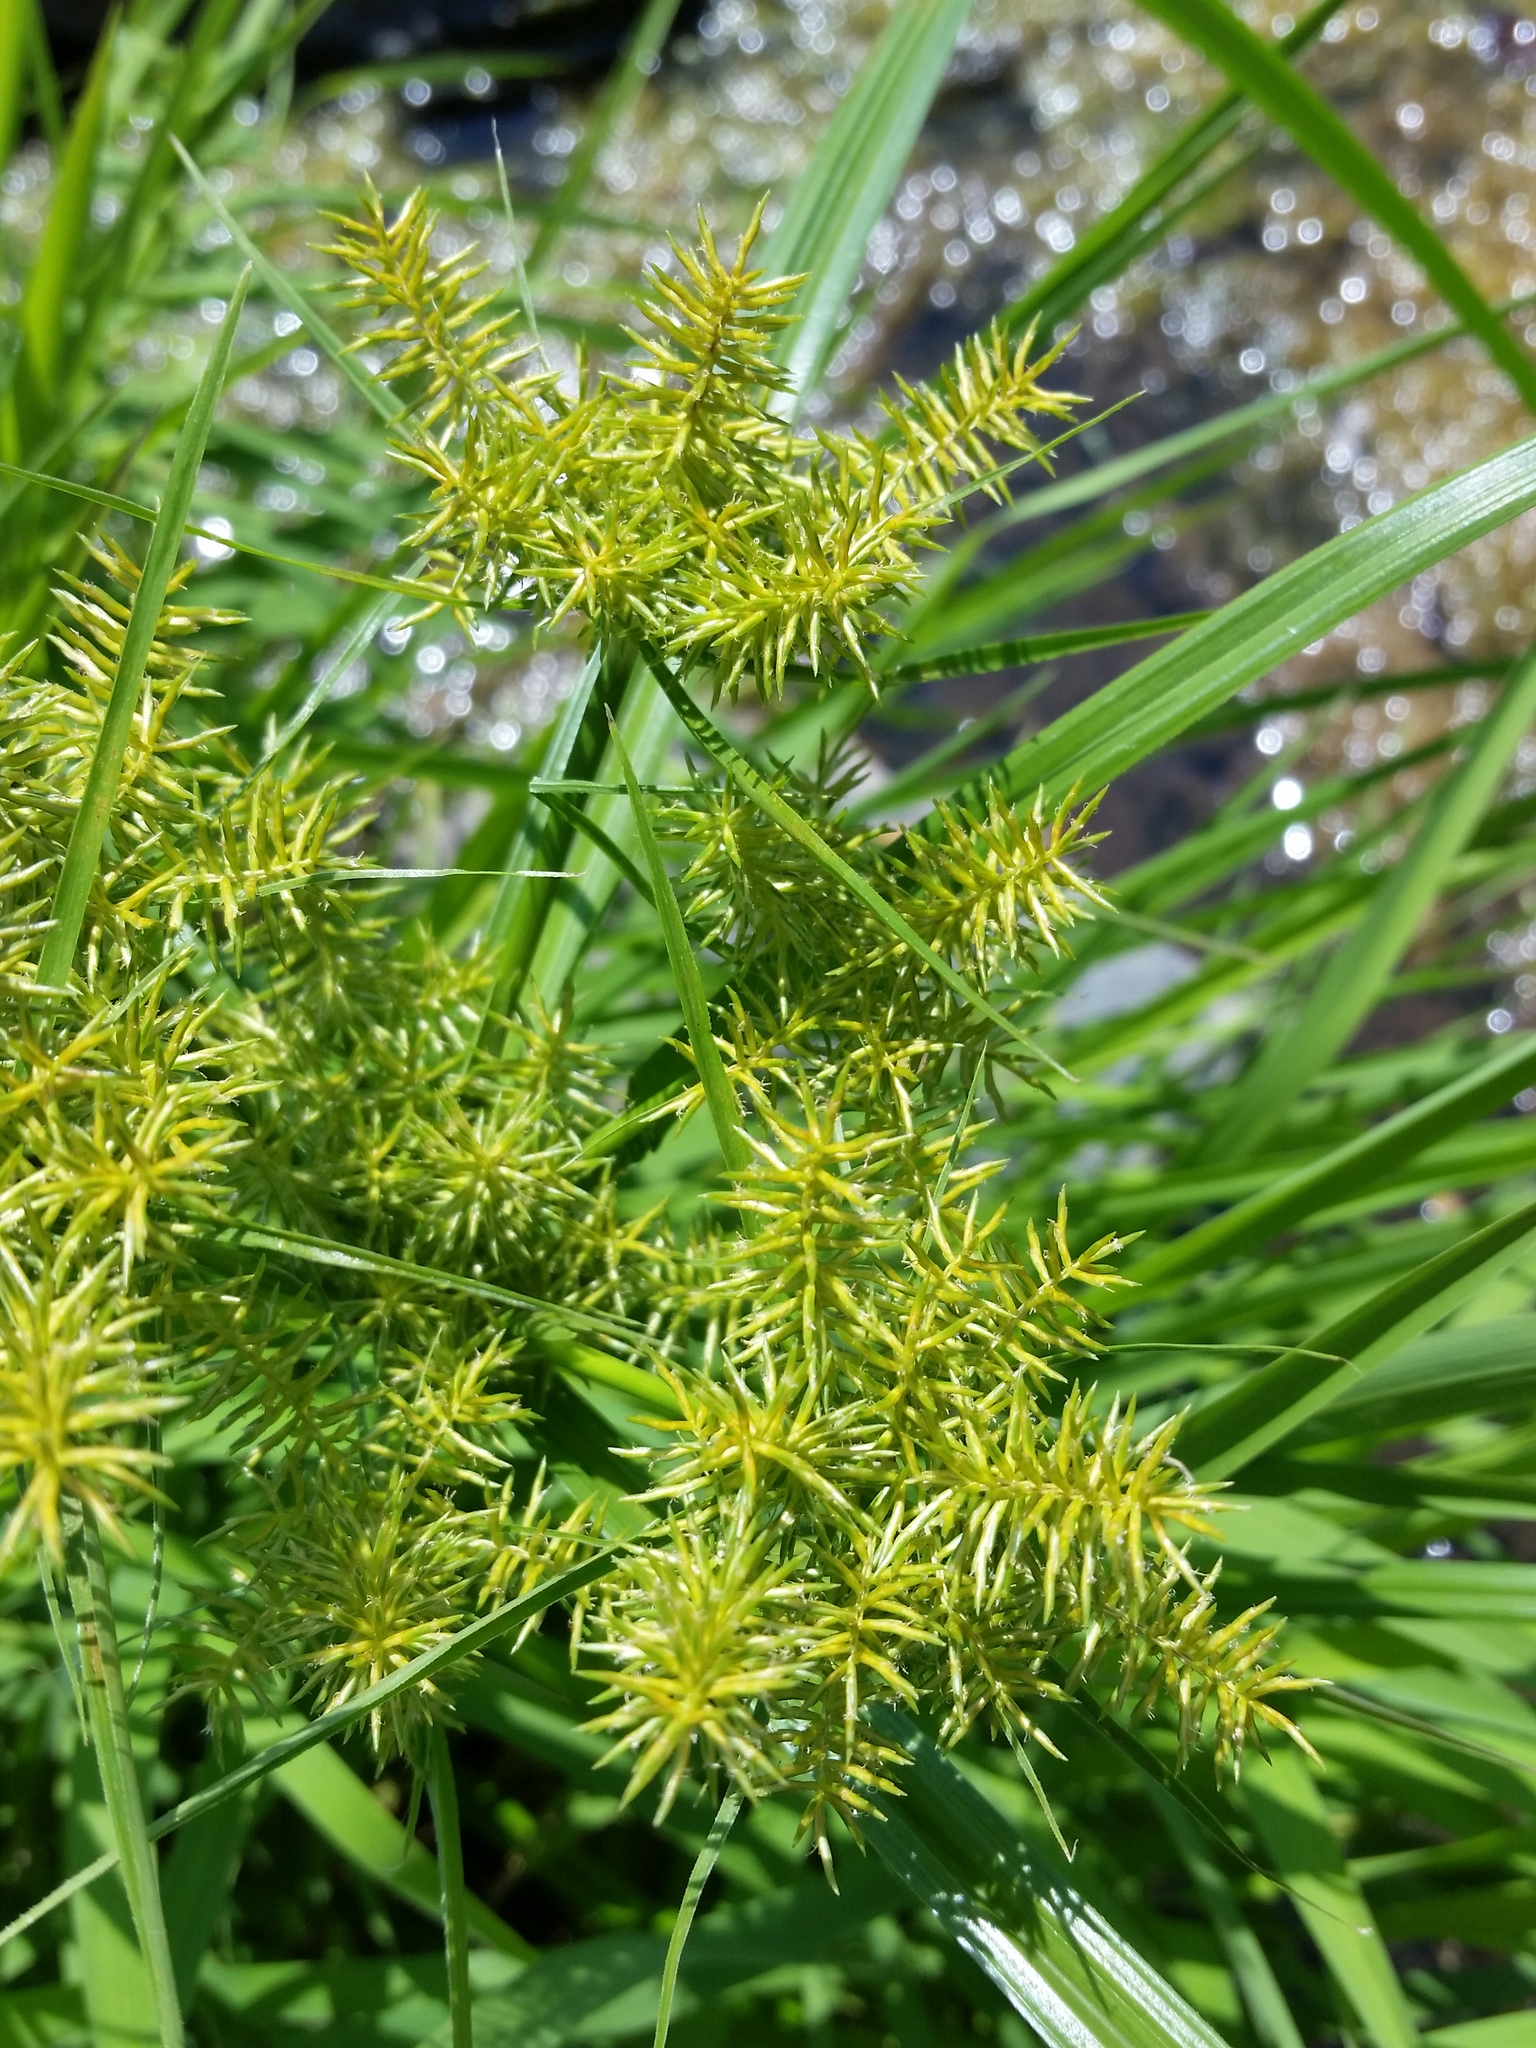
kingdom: Plantae
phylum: Tracheophyta
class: Liliopsida
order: Poales
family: Cyperaceae
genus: Cyperus
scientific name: Cyperus odoratus
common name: Fragrant flatsedge
